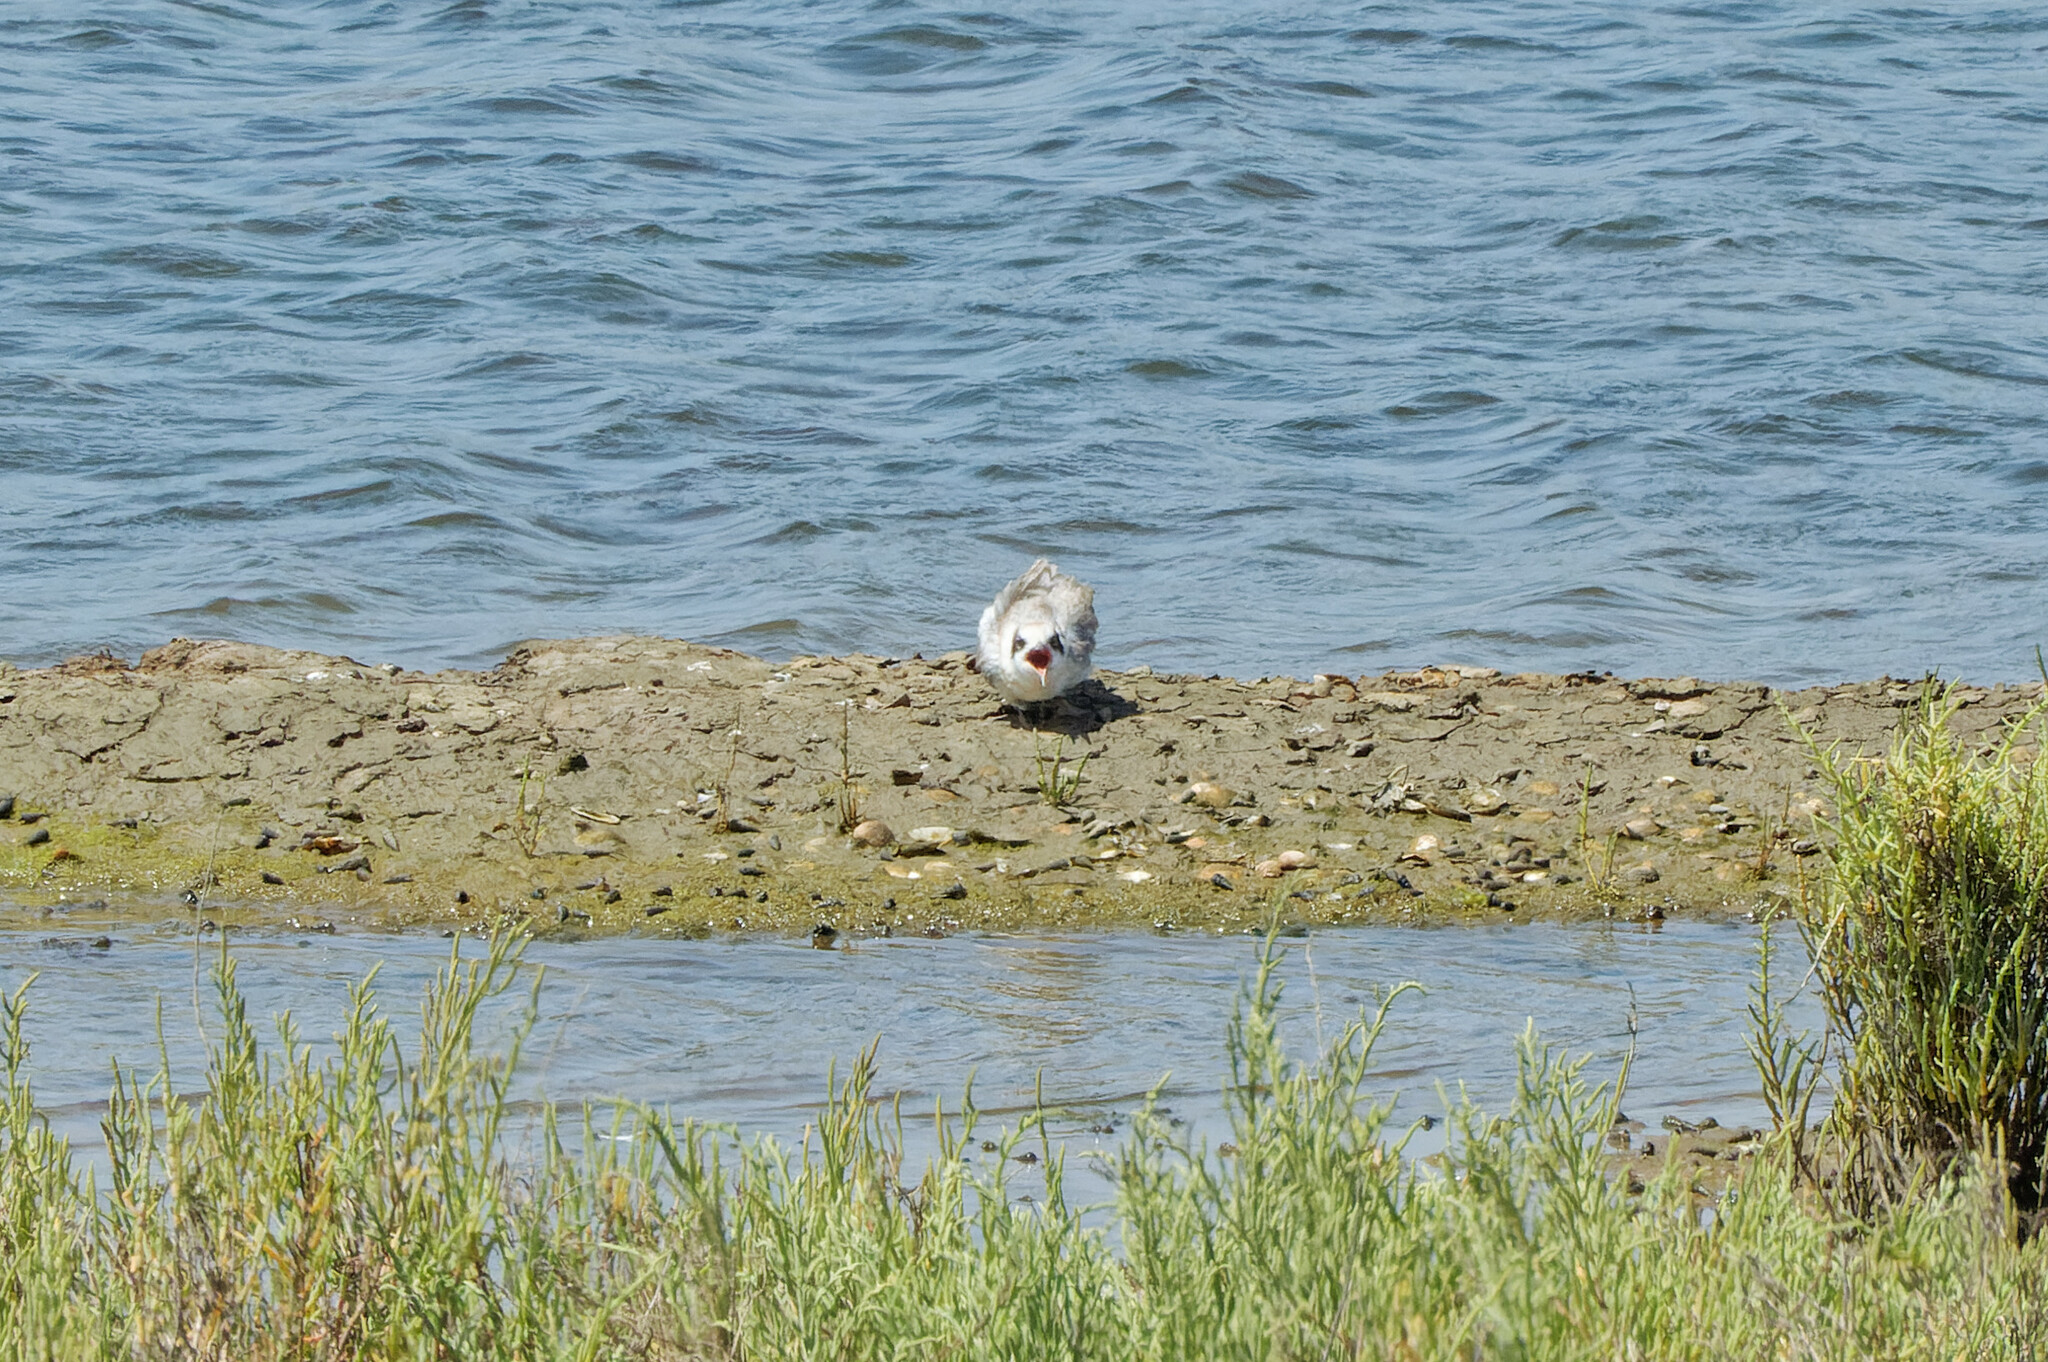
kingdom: Animalia
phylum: Chordata
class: Aves
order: Charadriiformes
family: Laridae
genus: Sterna
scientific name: Sterna forsteri
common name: Forster's tern
